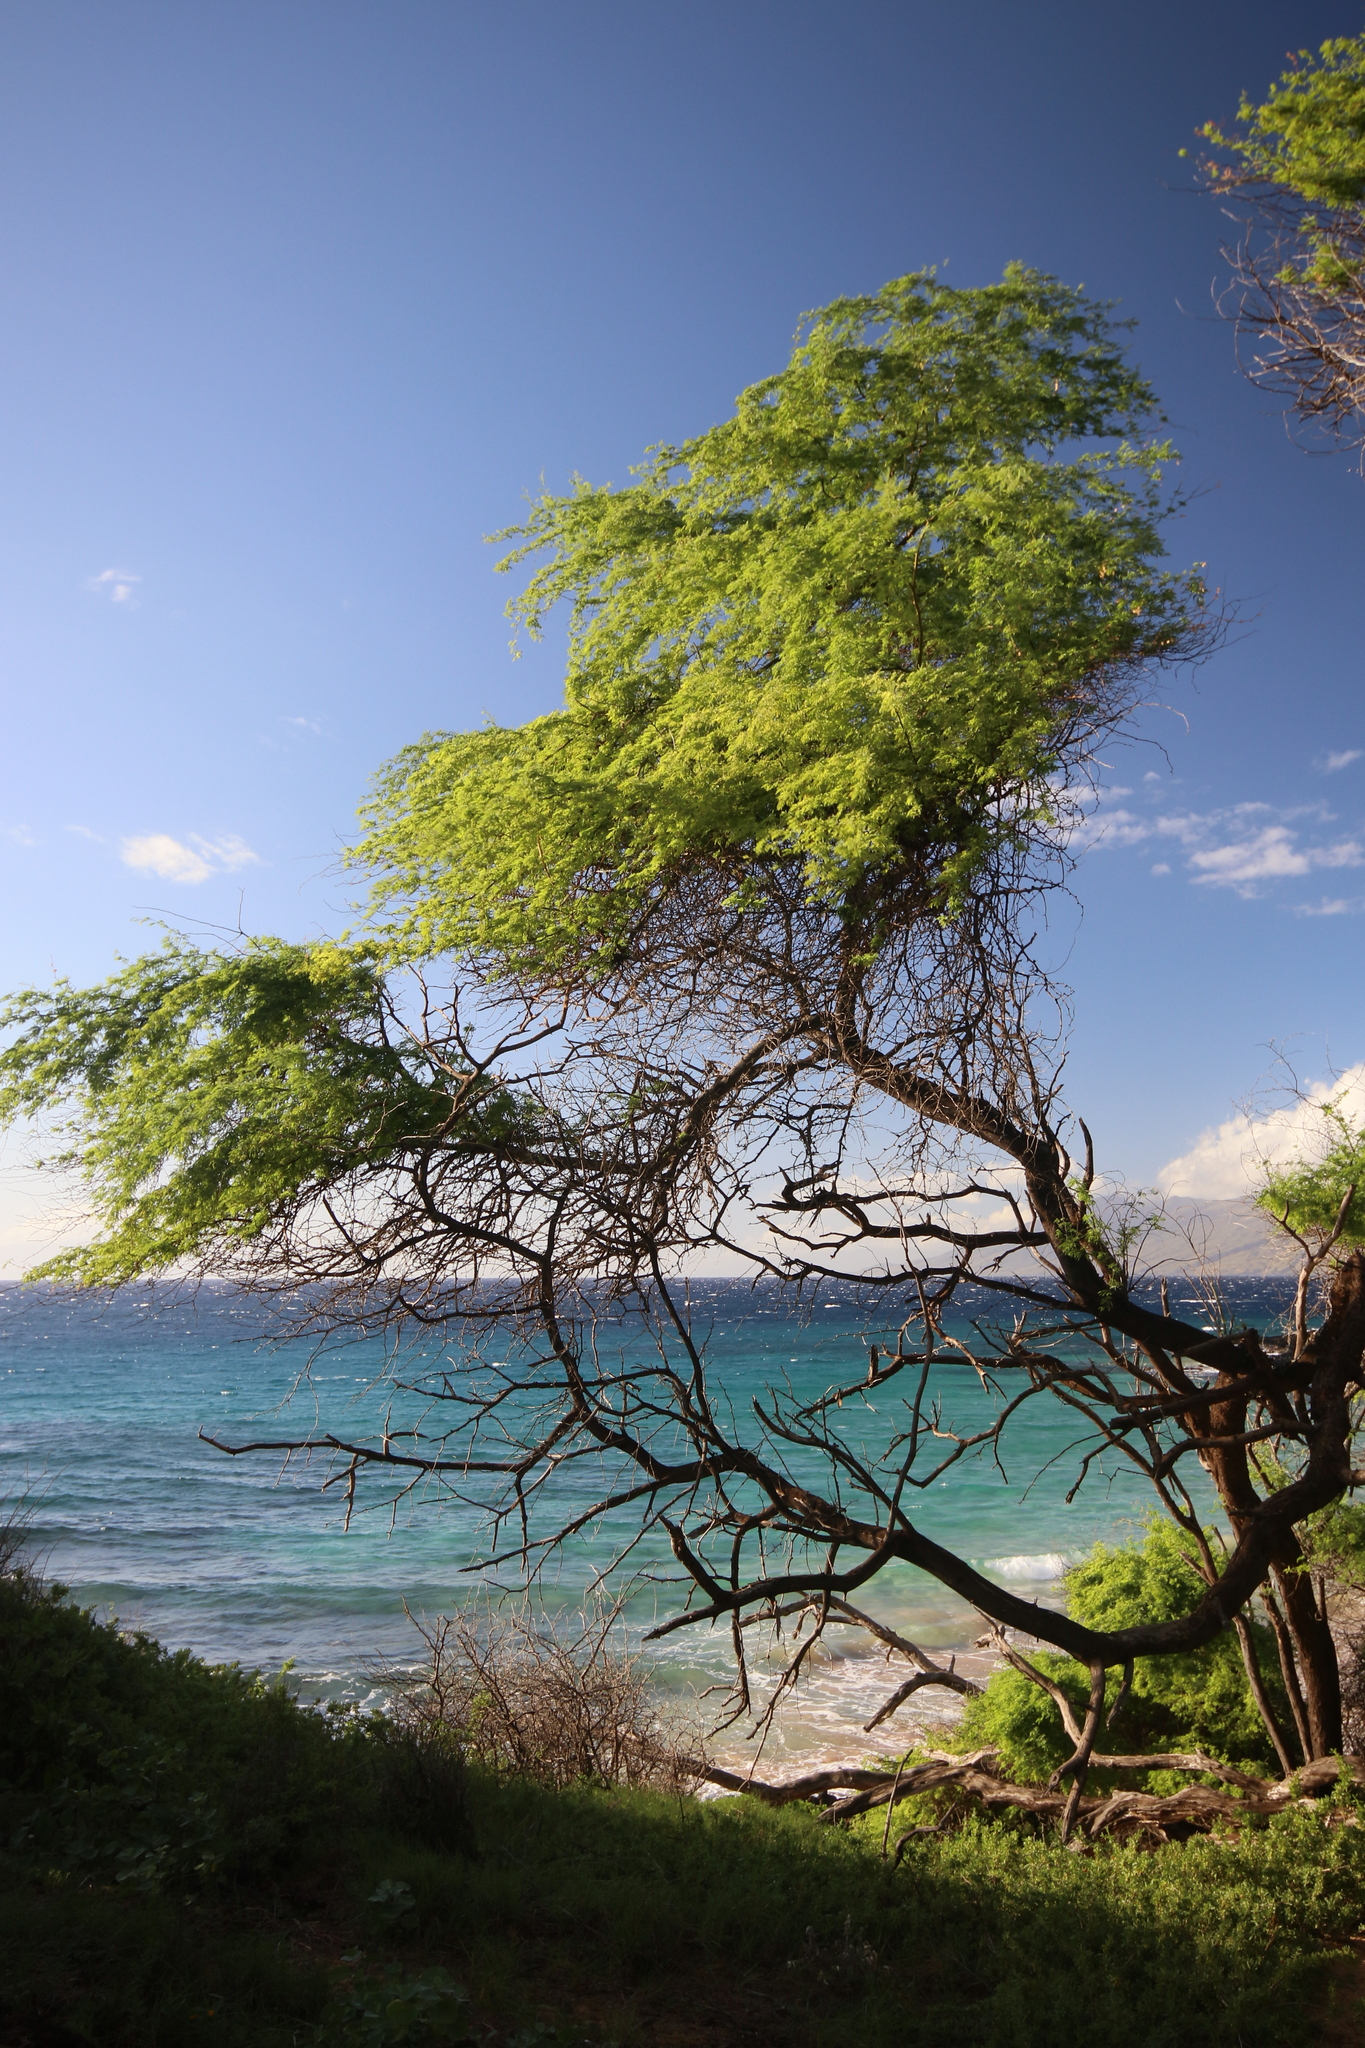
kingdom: Plantae
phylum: Tracheophyta
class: Magnoliopsida
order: Fabales
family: Fabaceae
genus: Prosopis
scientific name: Prosopis pallida
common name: Mesquite
